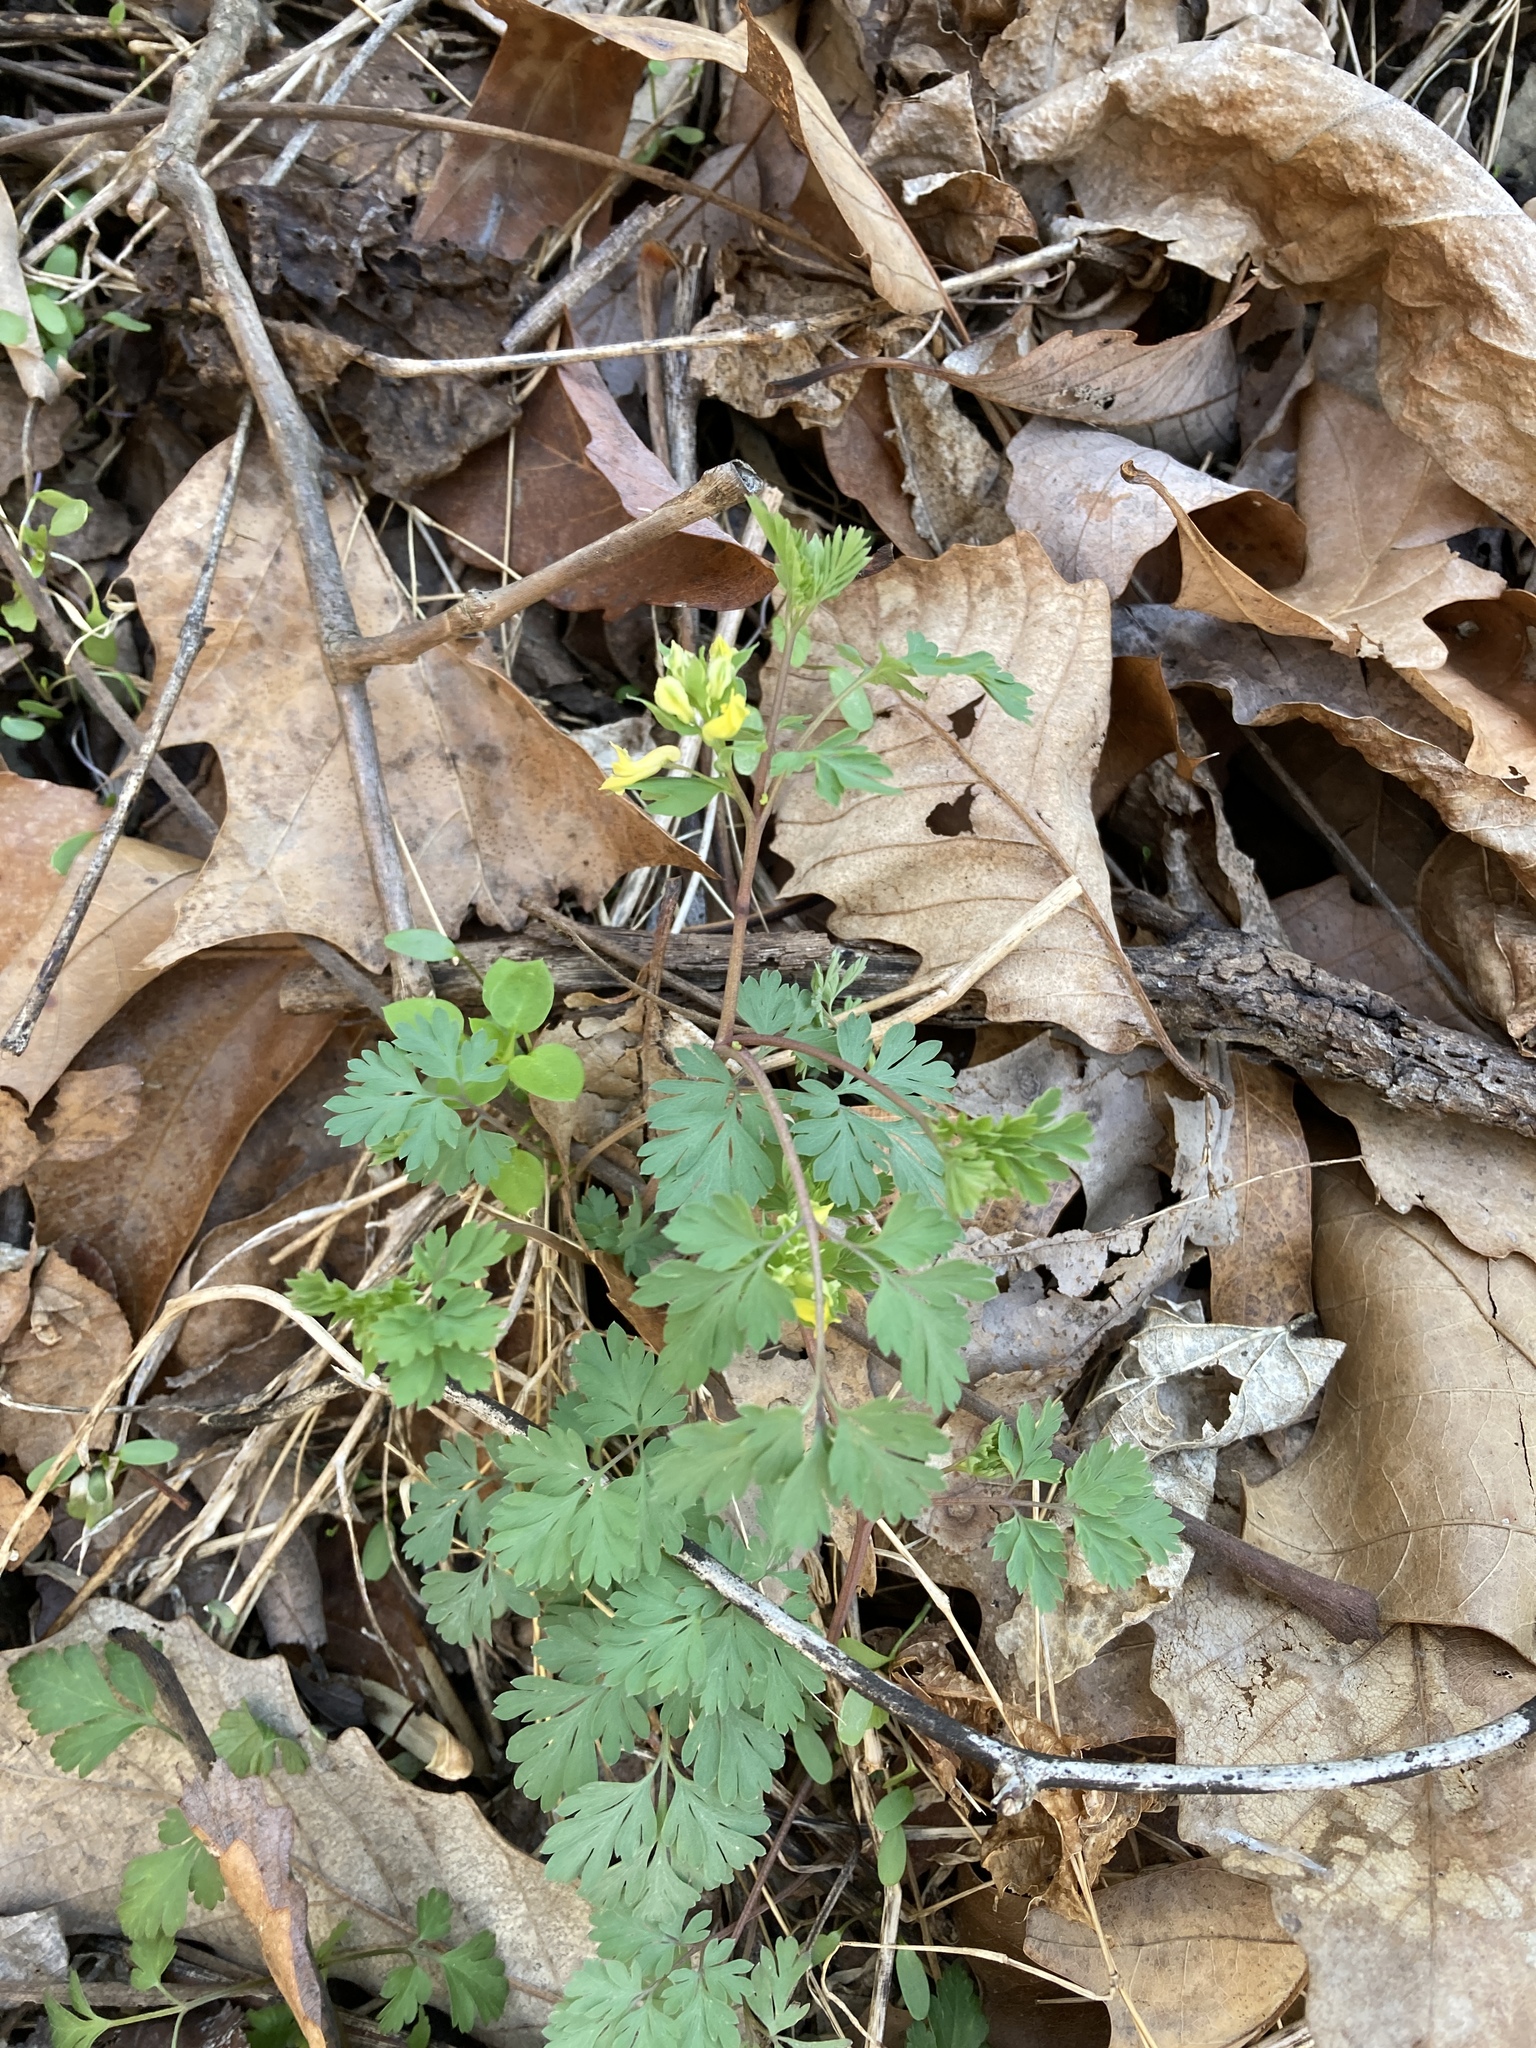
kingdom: Plantae
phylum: Tracheophyta
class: Magnoliopsida
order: Ranunculales
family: Papaveraceae
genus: Corydalis
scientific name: Corydalis flavula
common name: Yellow corydalis
